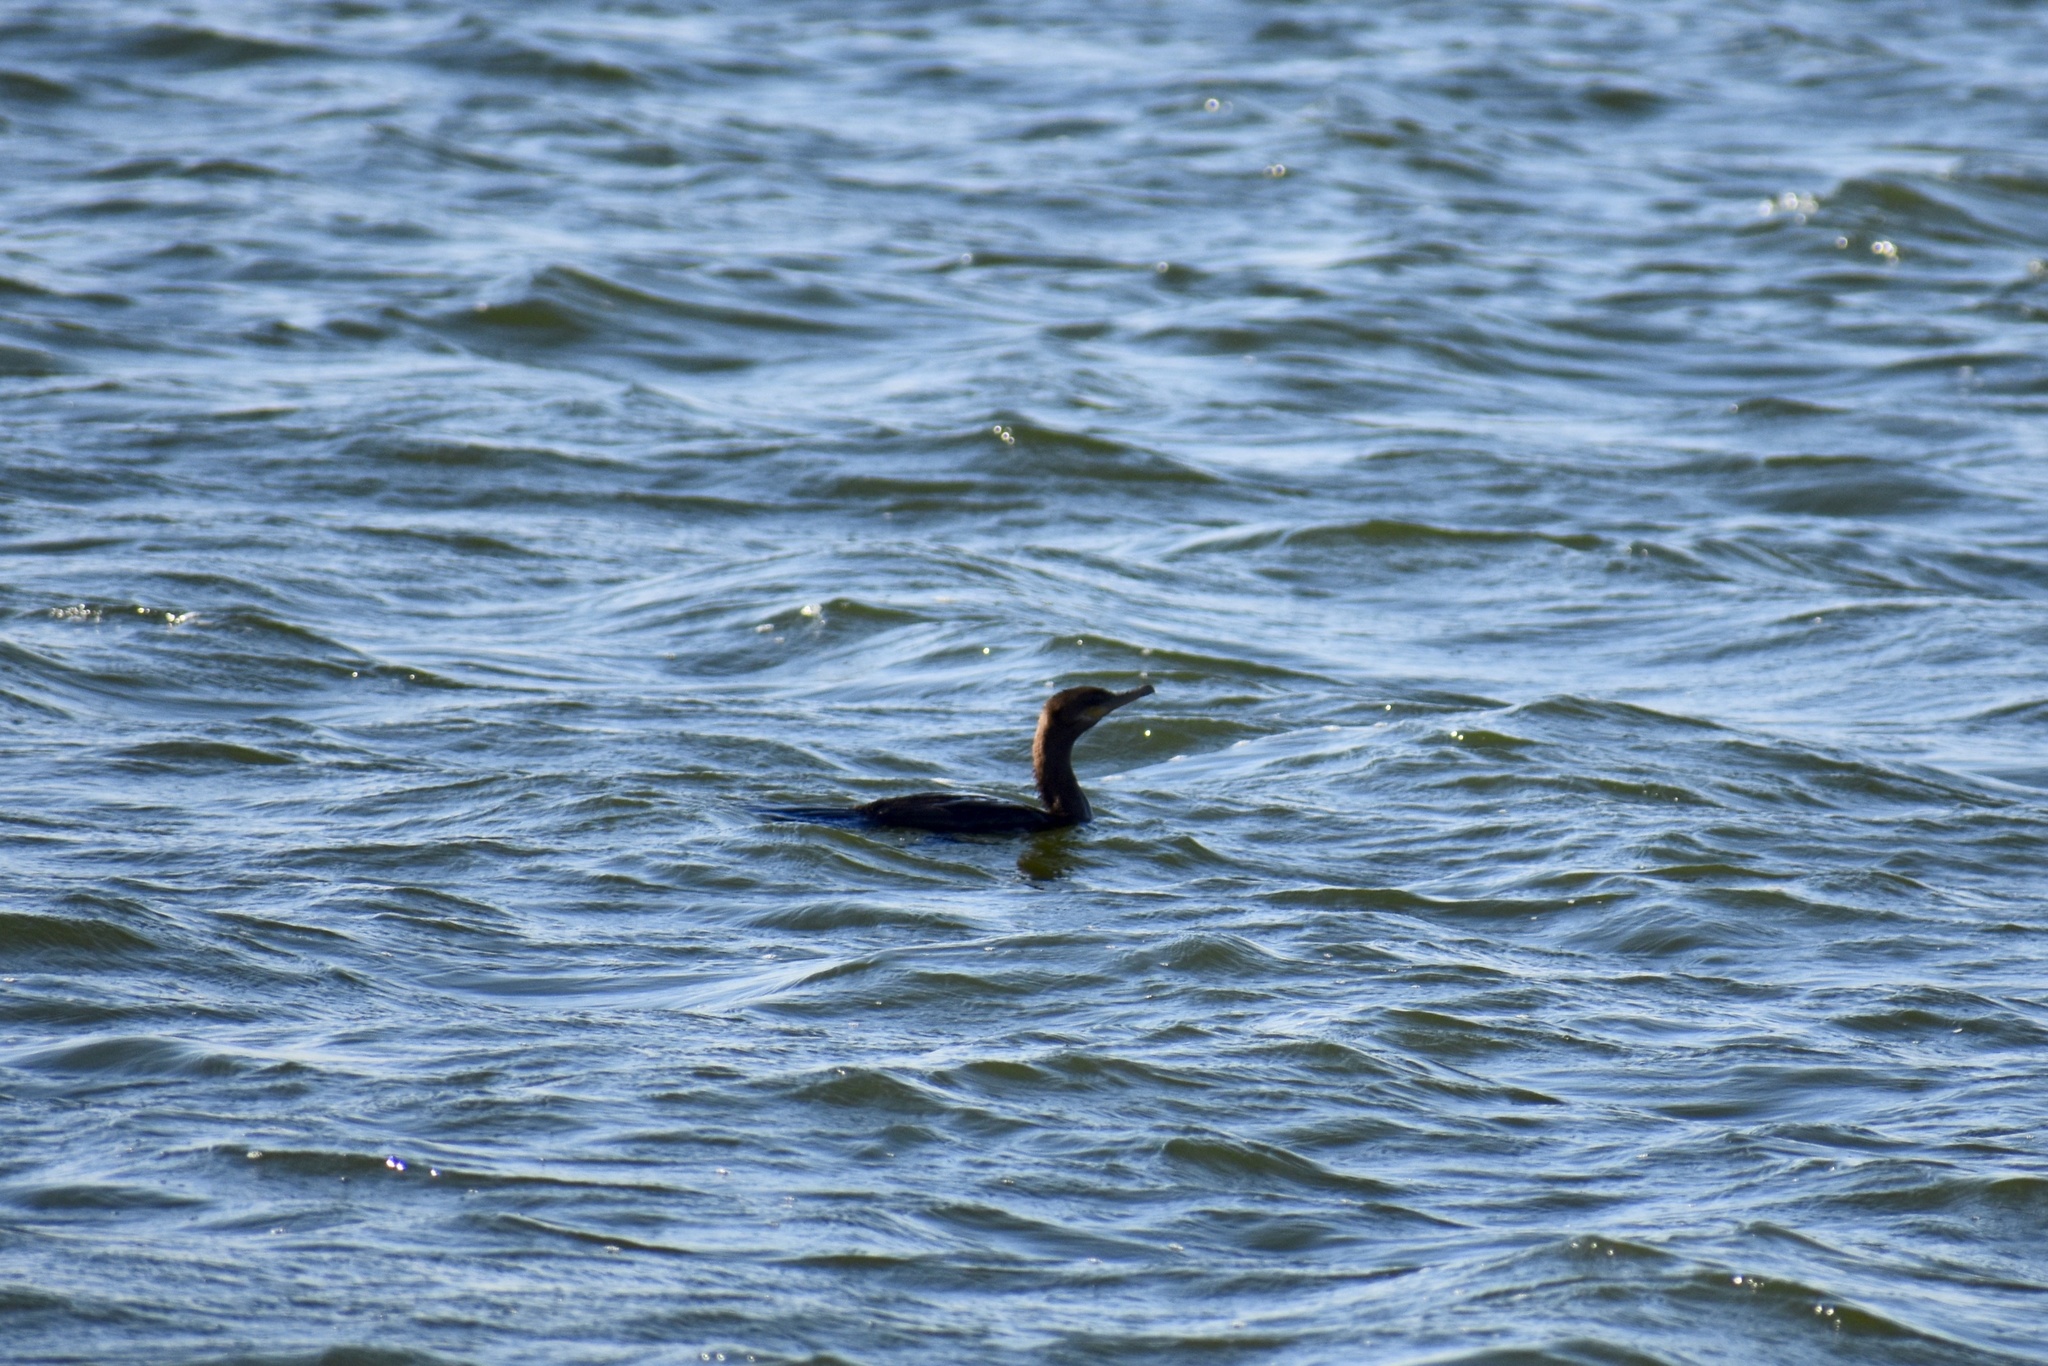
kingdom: Animalia
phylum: Chordata
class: Aves
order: Suliformes
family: Phalacrocoracidae
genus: Phalacrocorax
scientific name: Phalacrocorax brasilianus
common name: Neotropic cormorant
